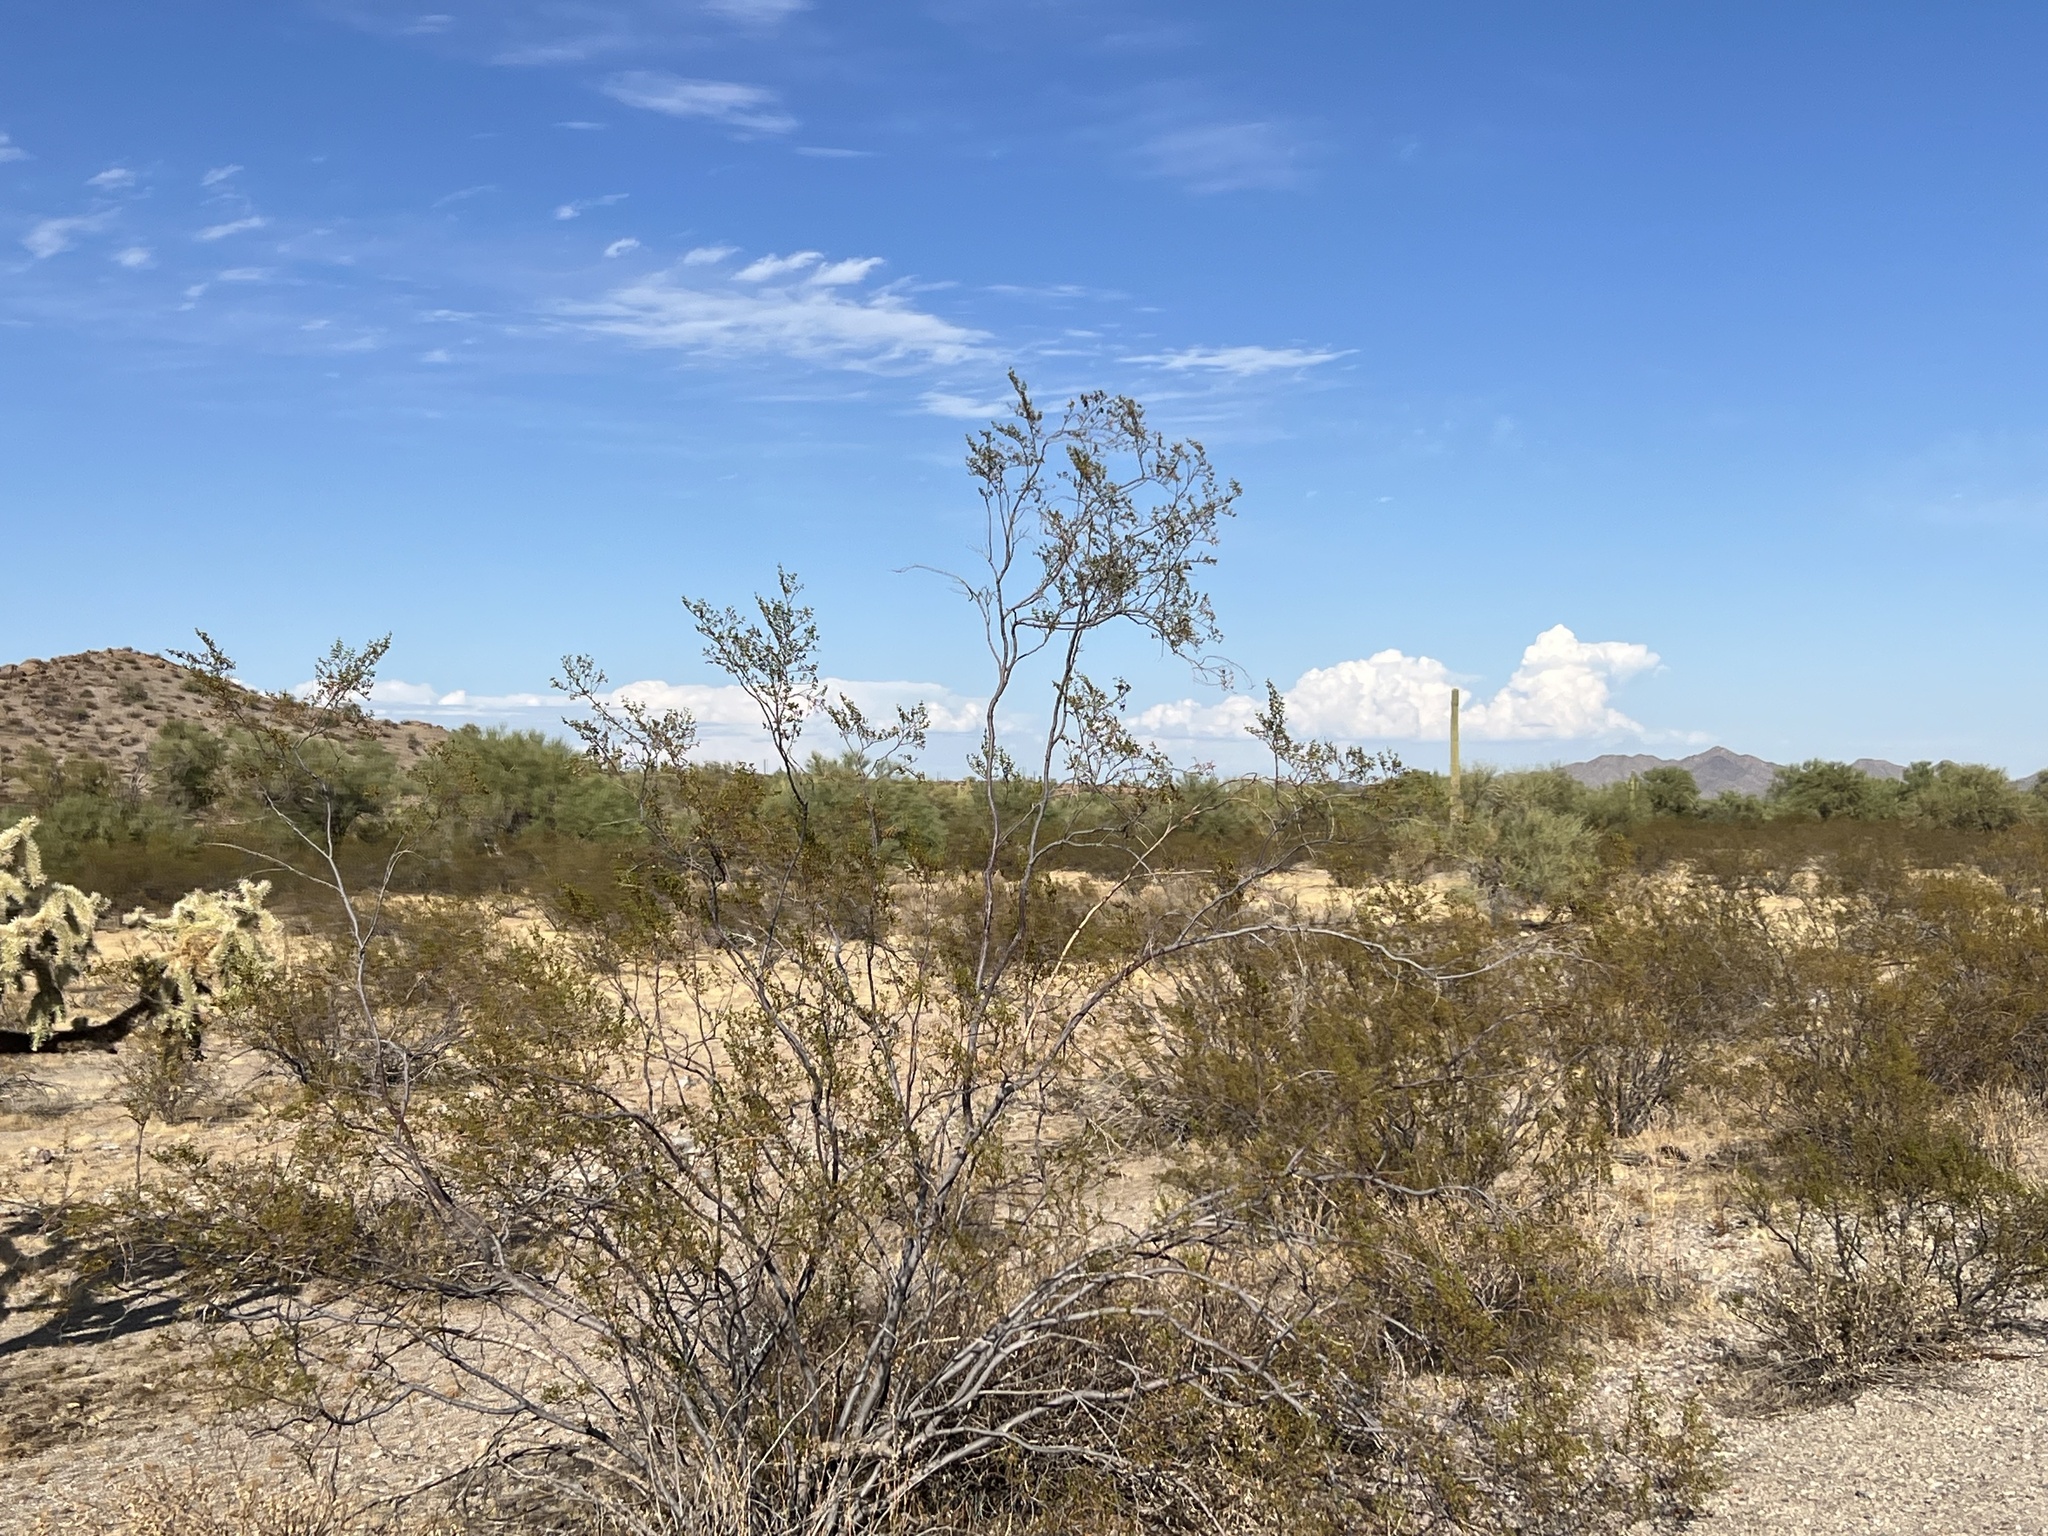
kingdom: Plantae
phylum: Tracheophyta
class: Magnoliopsida
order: Zygophyllales
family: Zygophyllaceae
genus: Larrea
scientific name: Larrea tridentata
